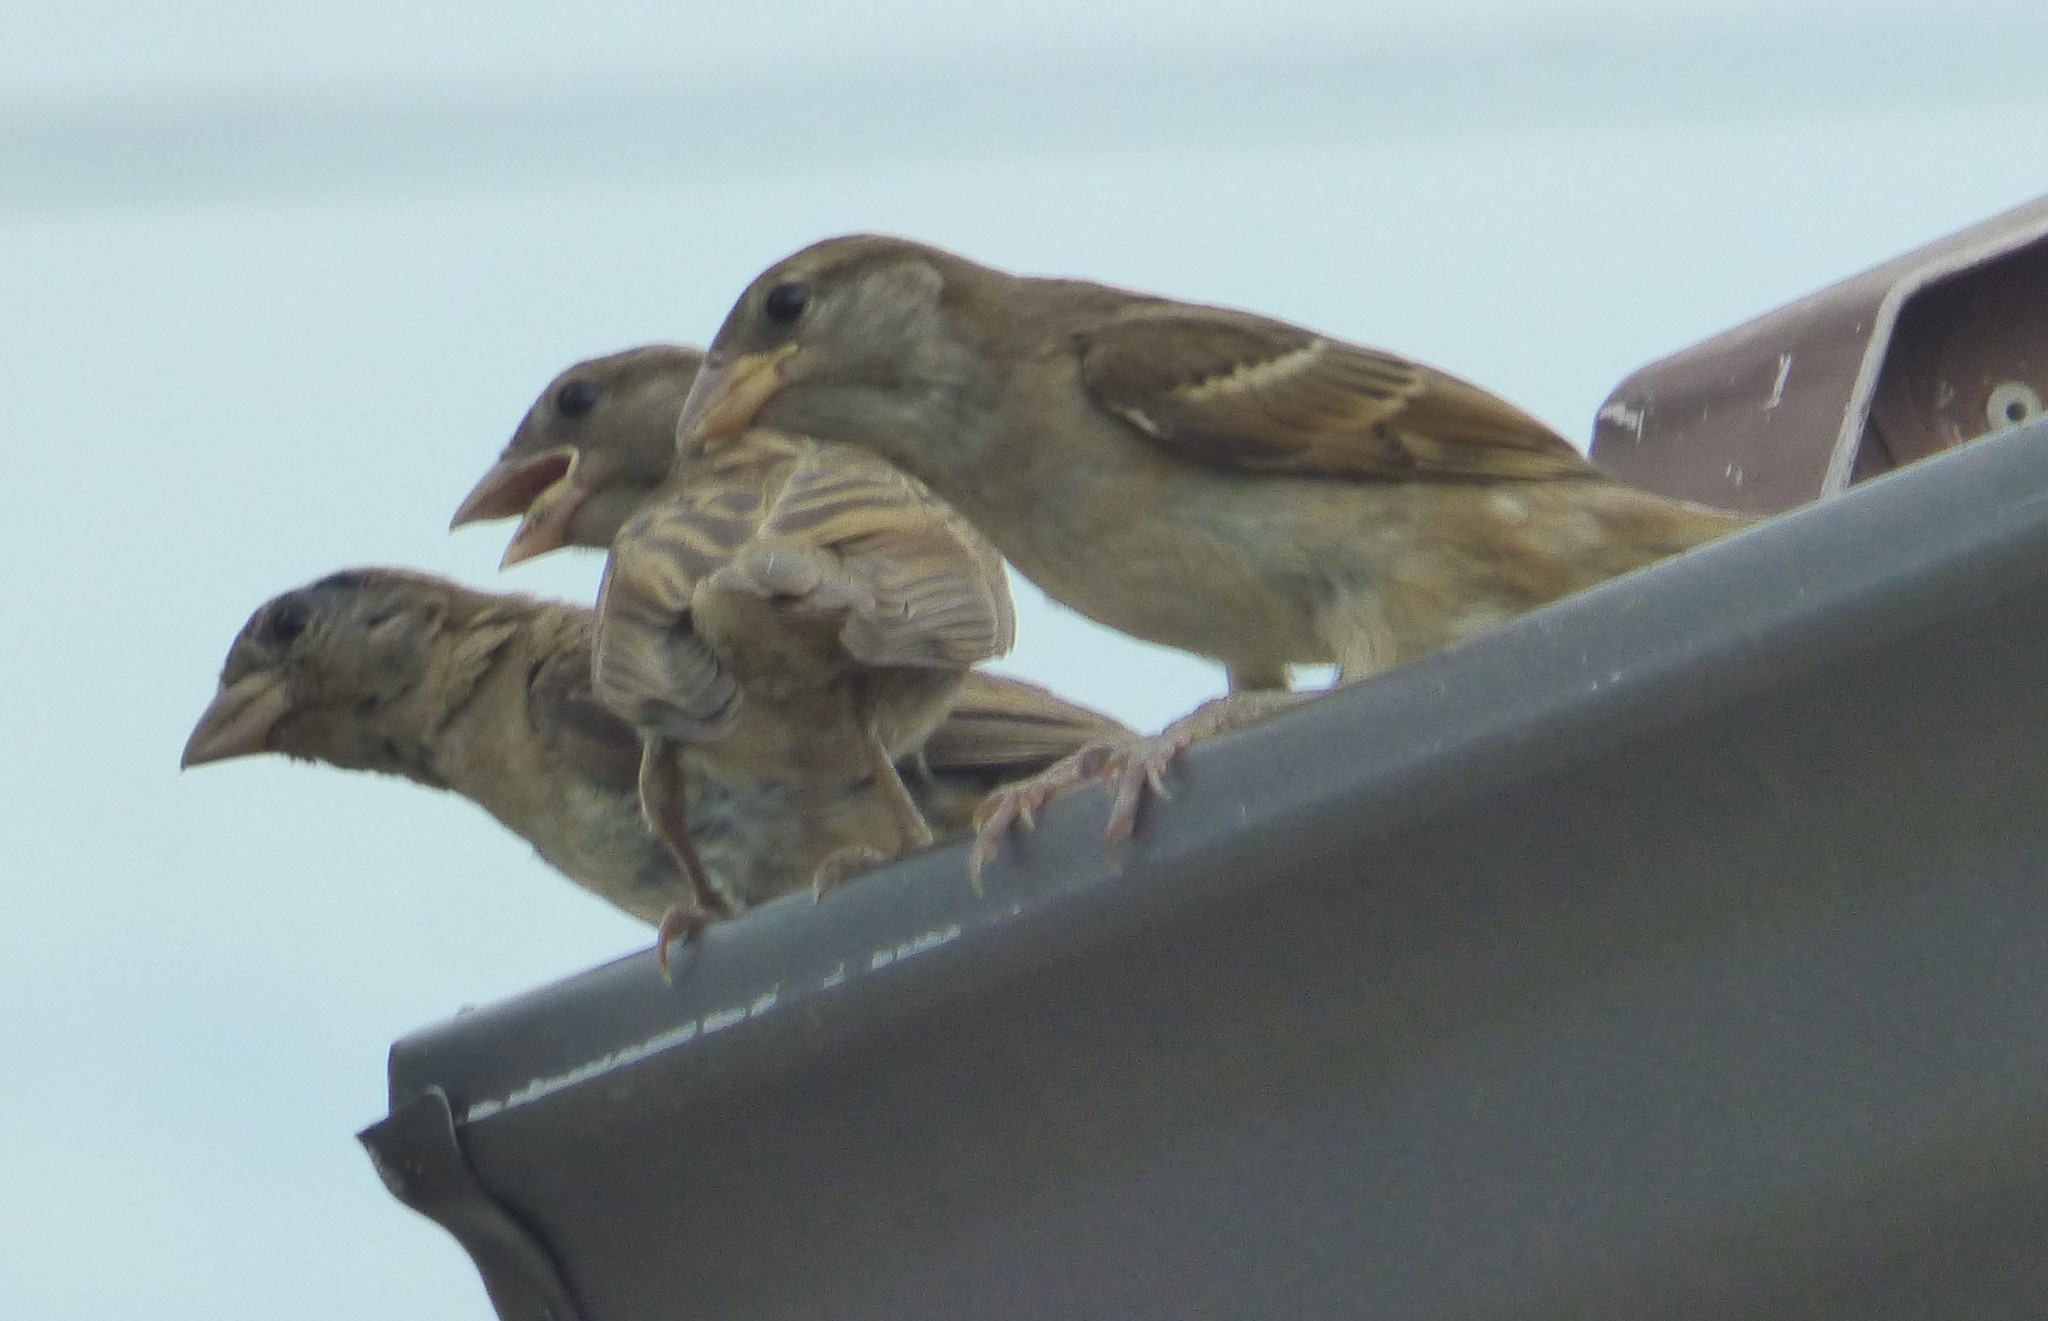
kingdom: Animalia
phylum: Chordata
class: Aves
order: Passeriformes
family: Passeridae
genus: Passer
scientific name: Passer domesticus
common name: House sparrow
